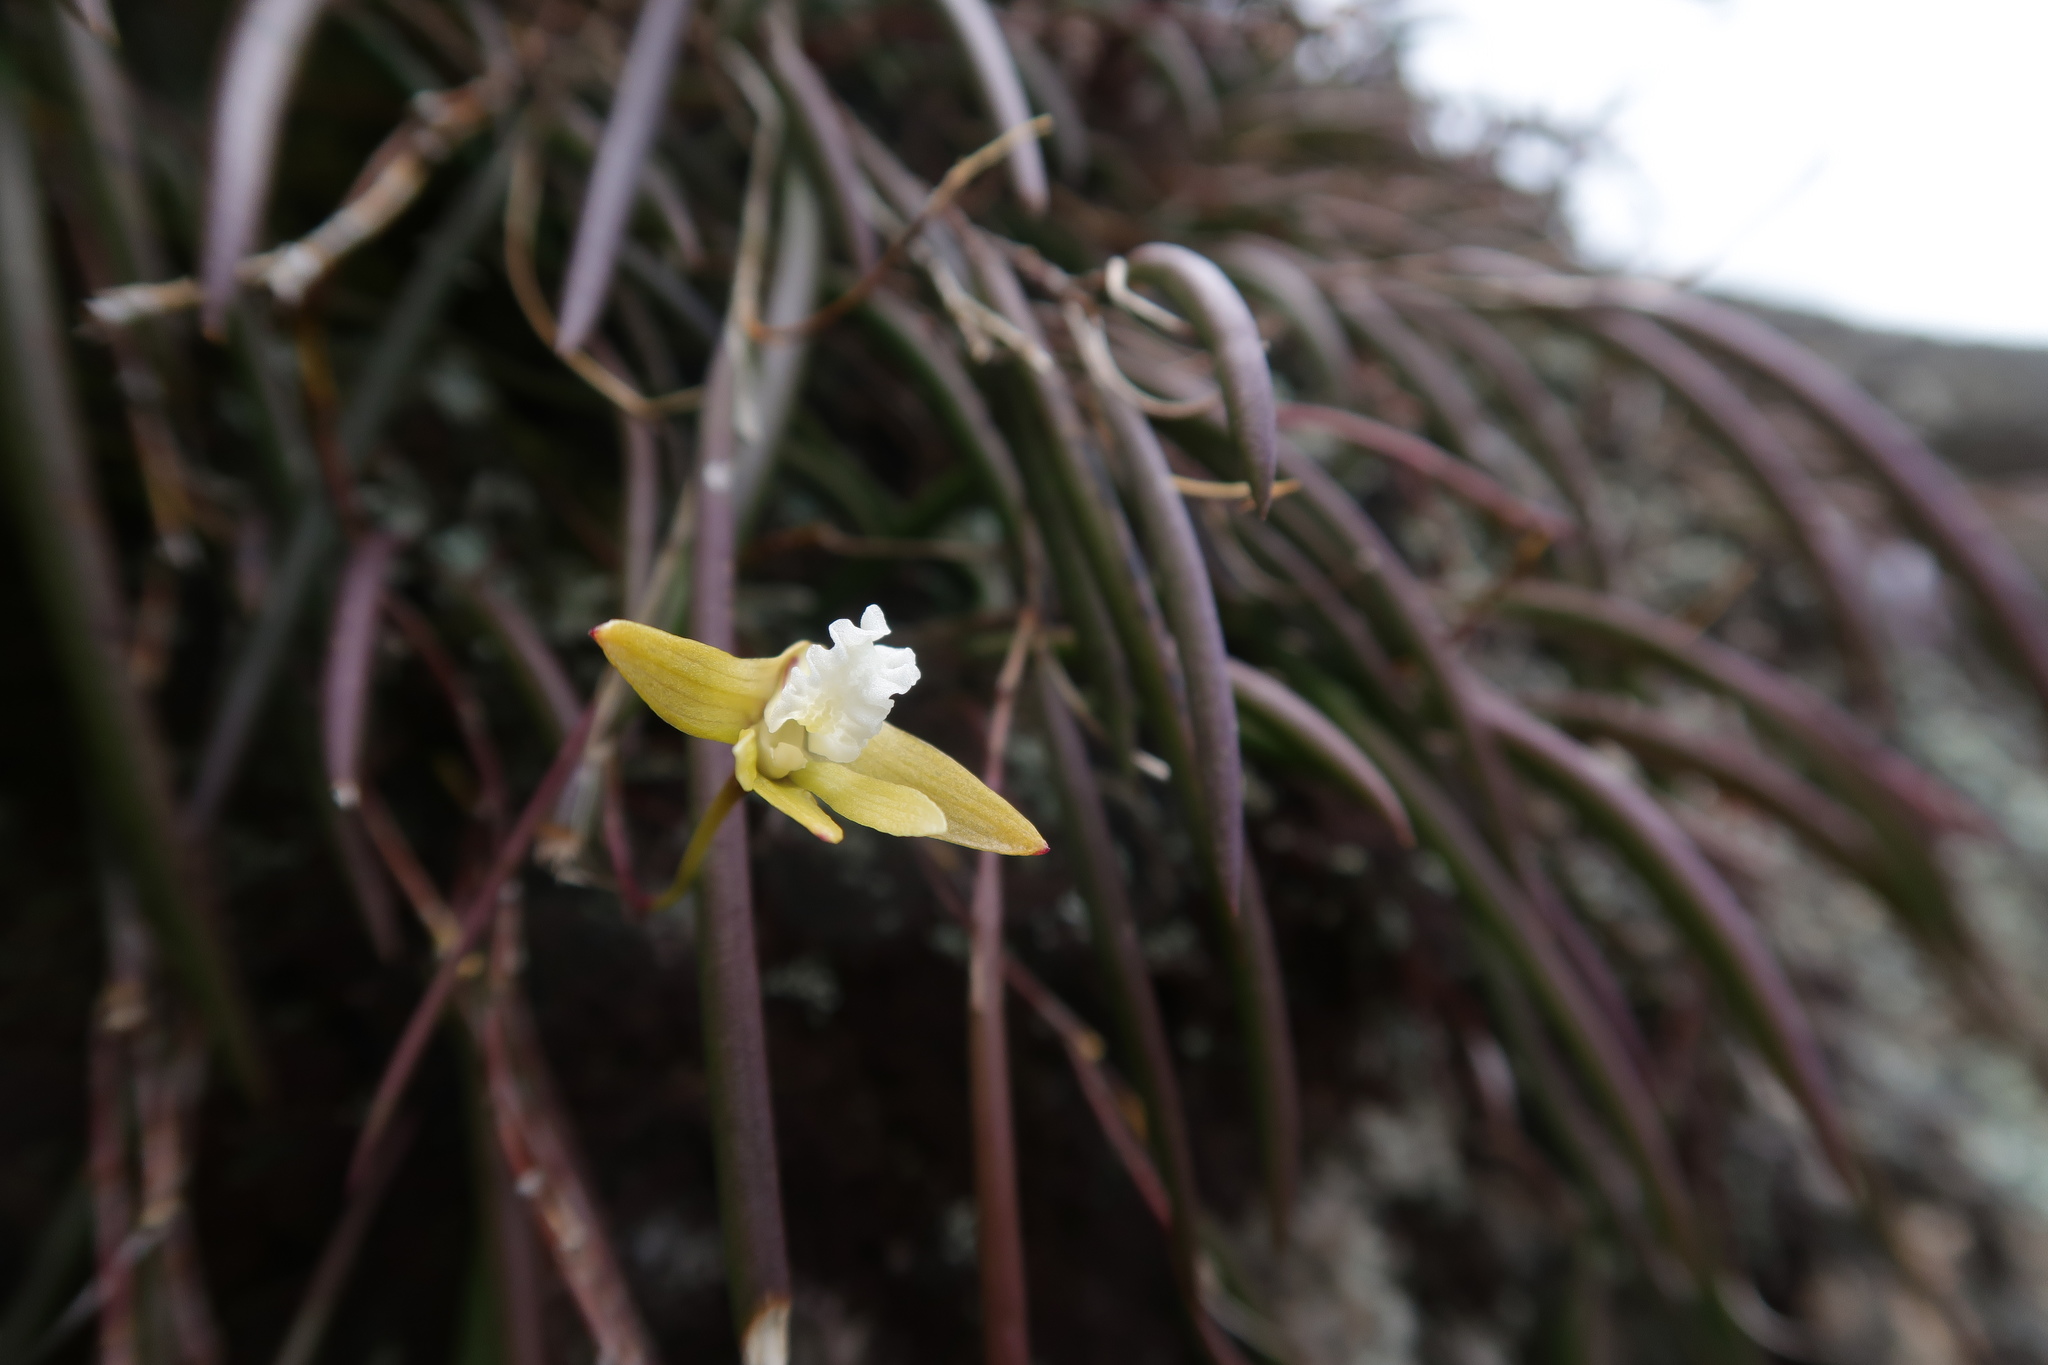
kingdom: Plantae
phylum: Tracheophyta
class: Liliopsida
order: Asparagales
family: Orchidaceae
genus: Dendrobium
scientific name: Dendrobium striolatum
